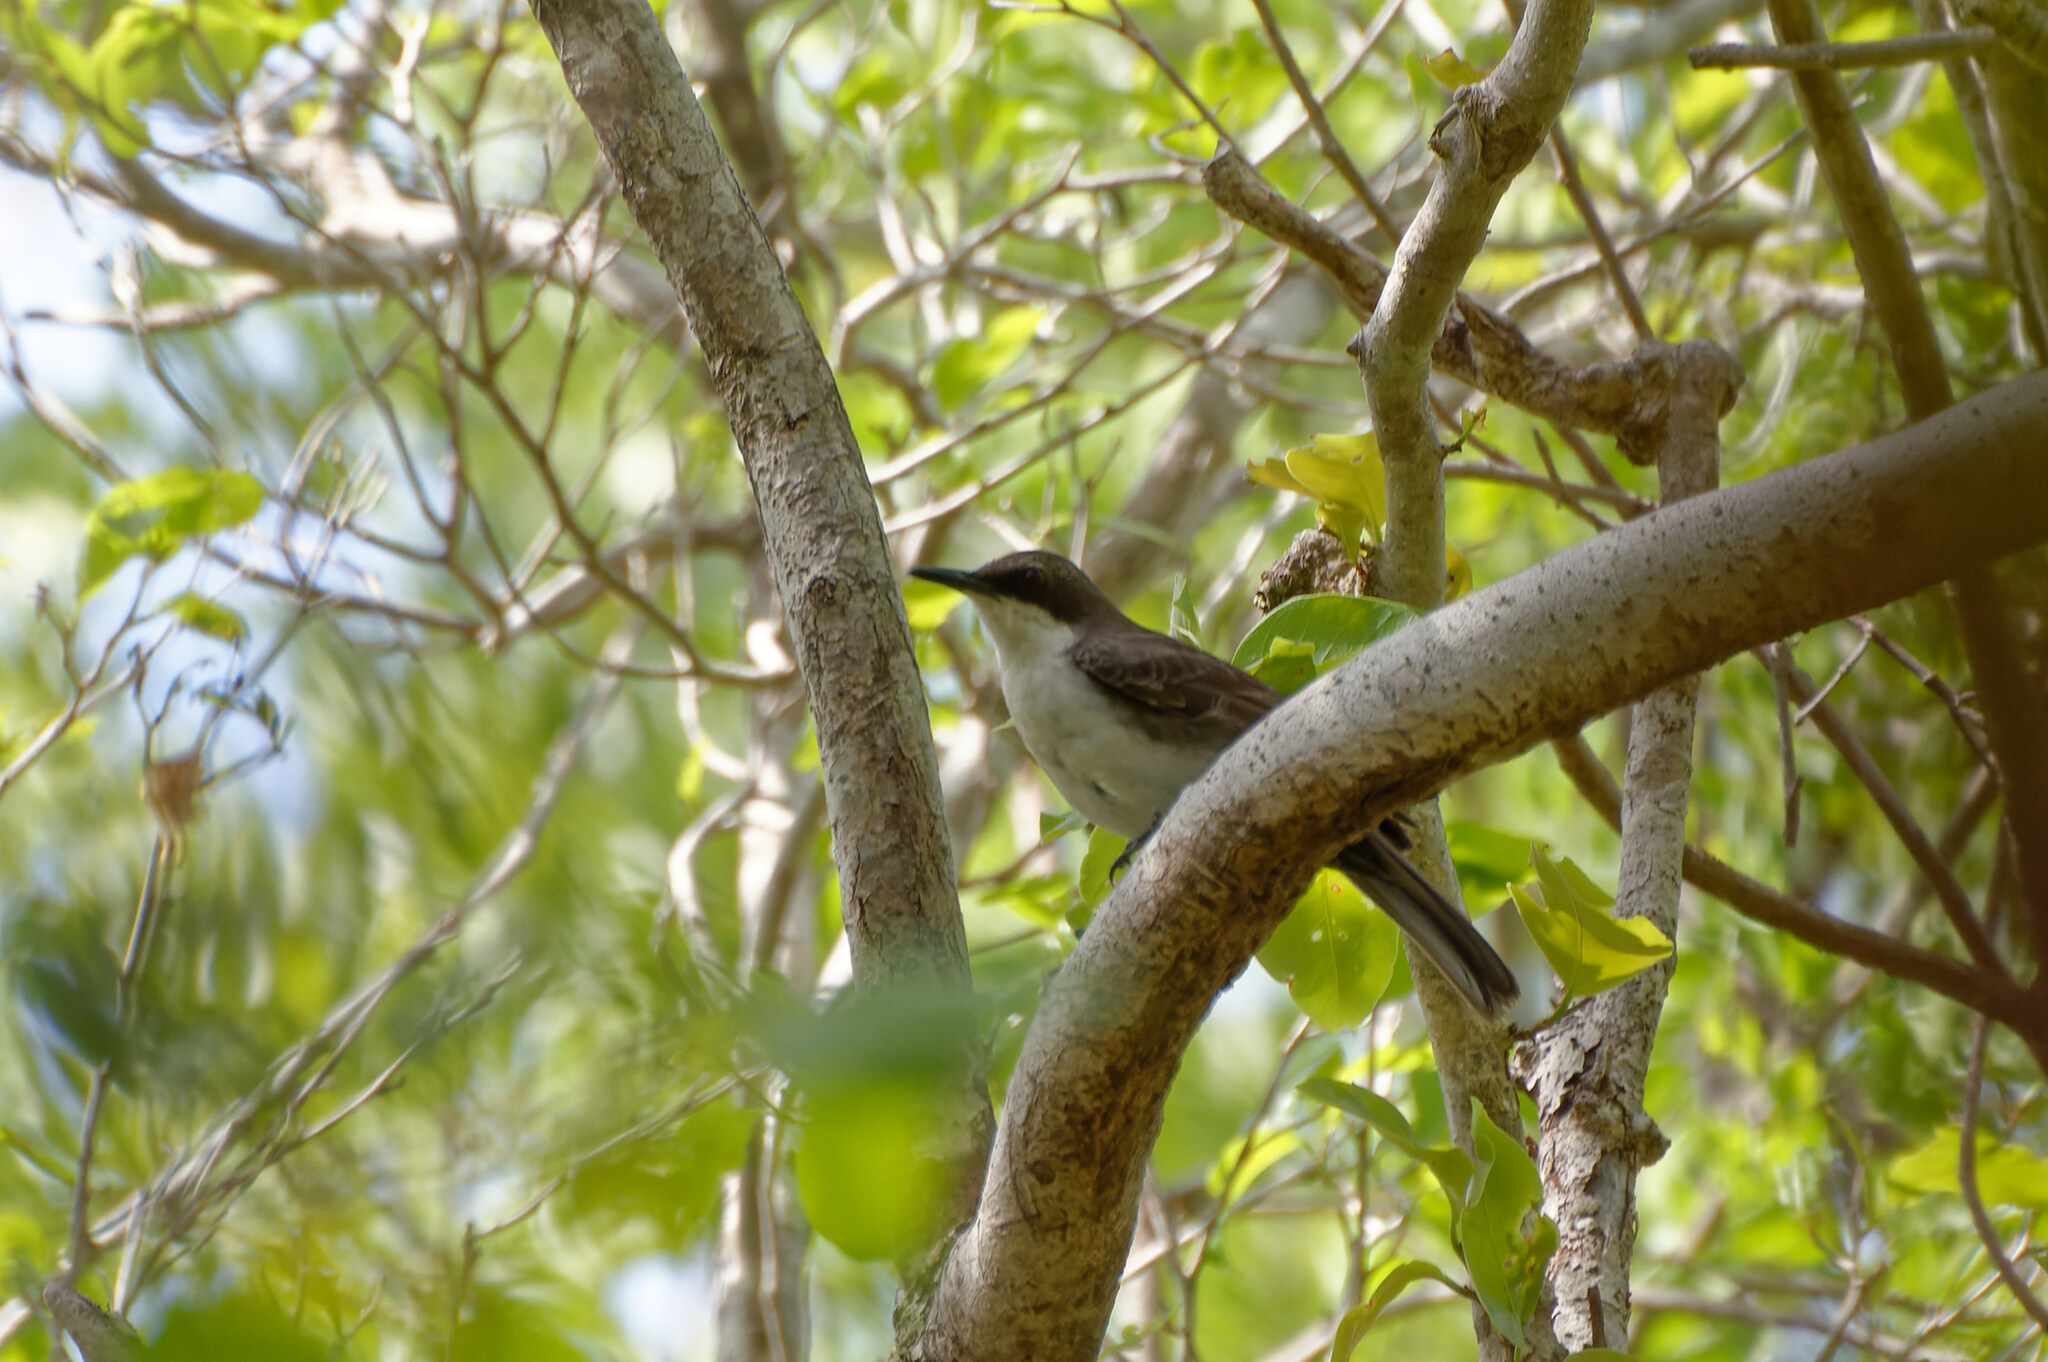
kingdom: Animalia
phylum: Chordata
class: Aves
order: Passeriformes
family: Mimidae
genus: Ramphocinclus
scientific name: Ramphocinclus brachyurus
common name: White-breasted thrasher
